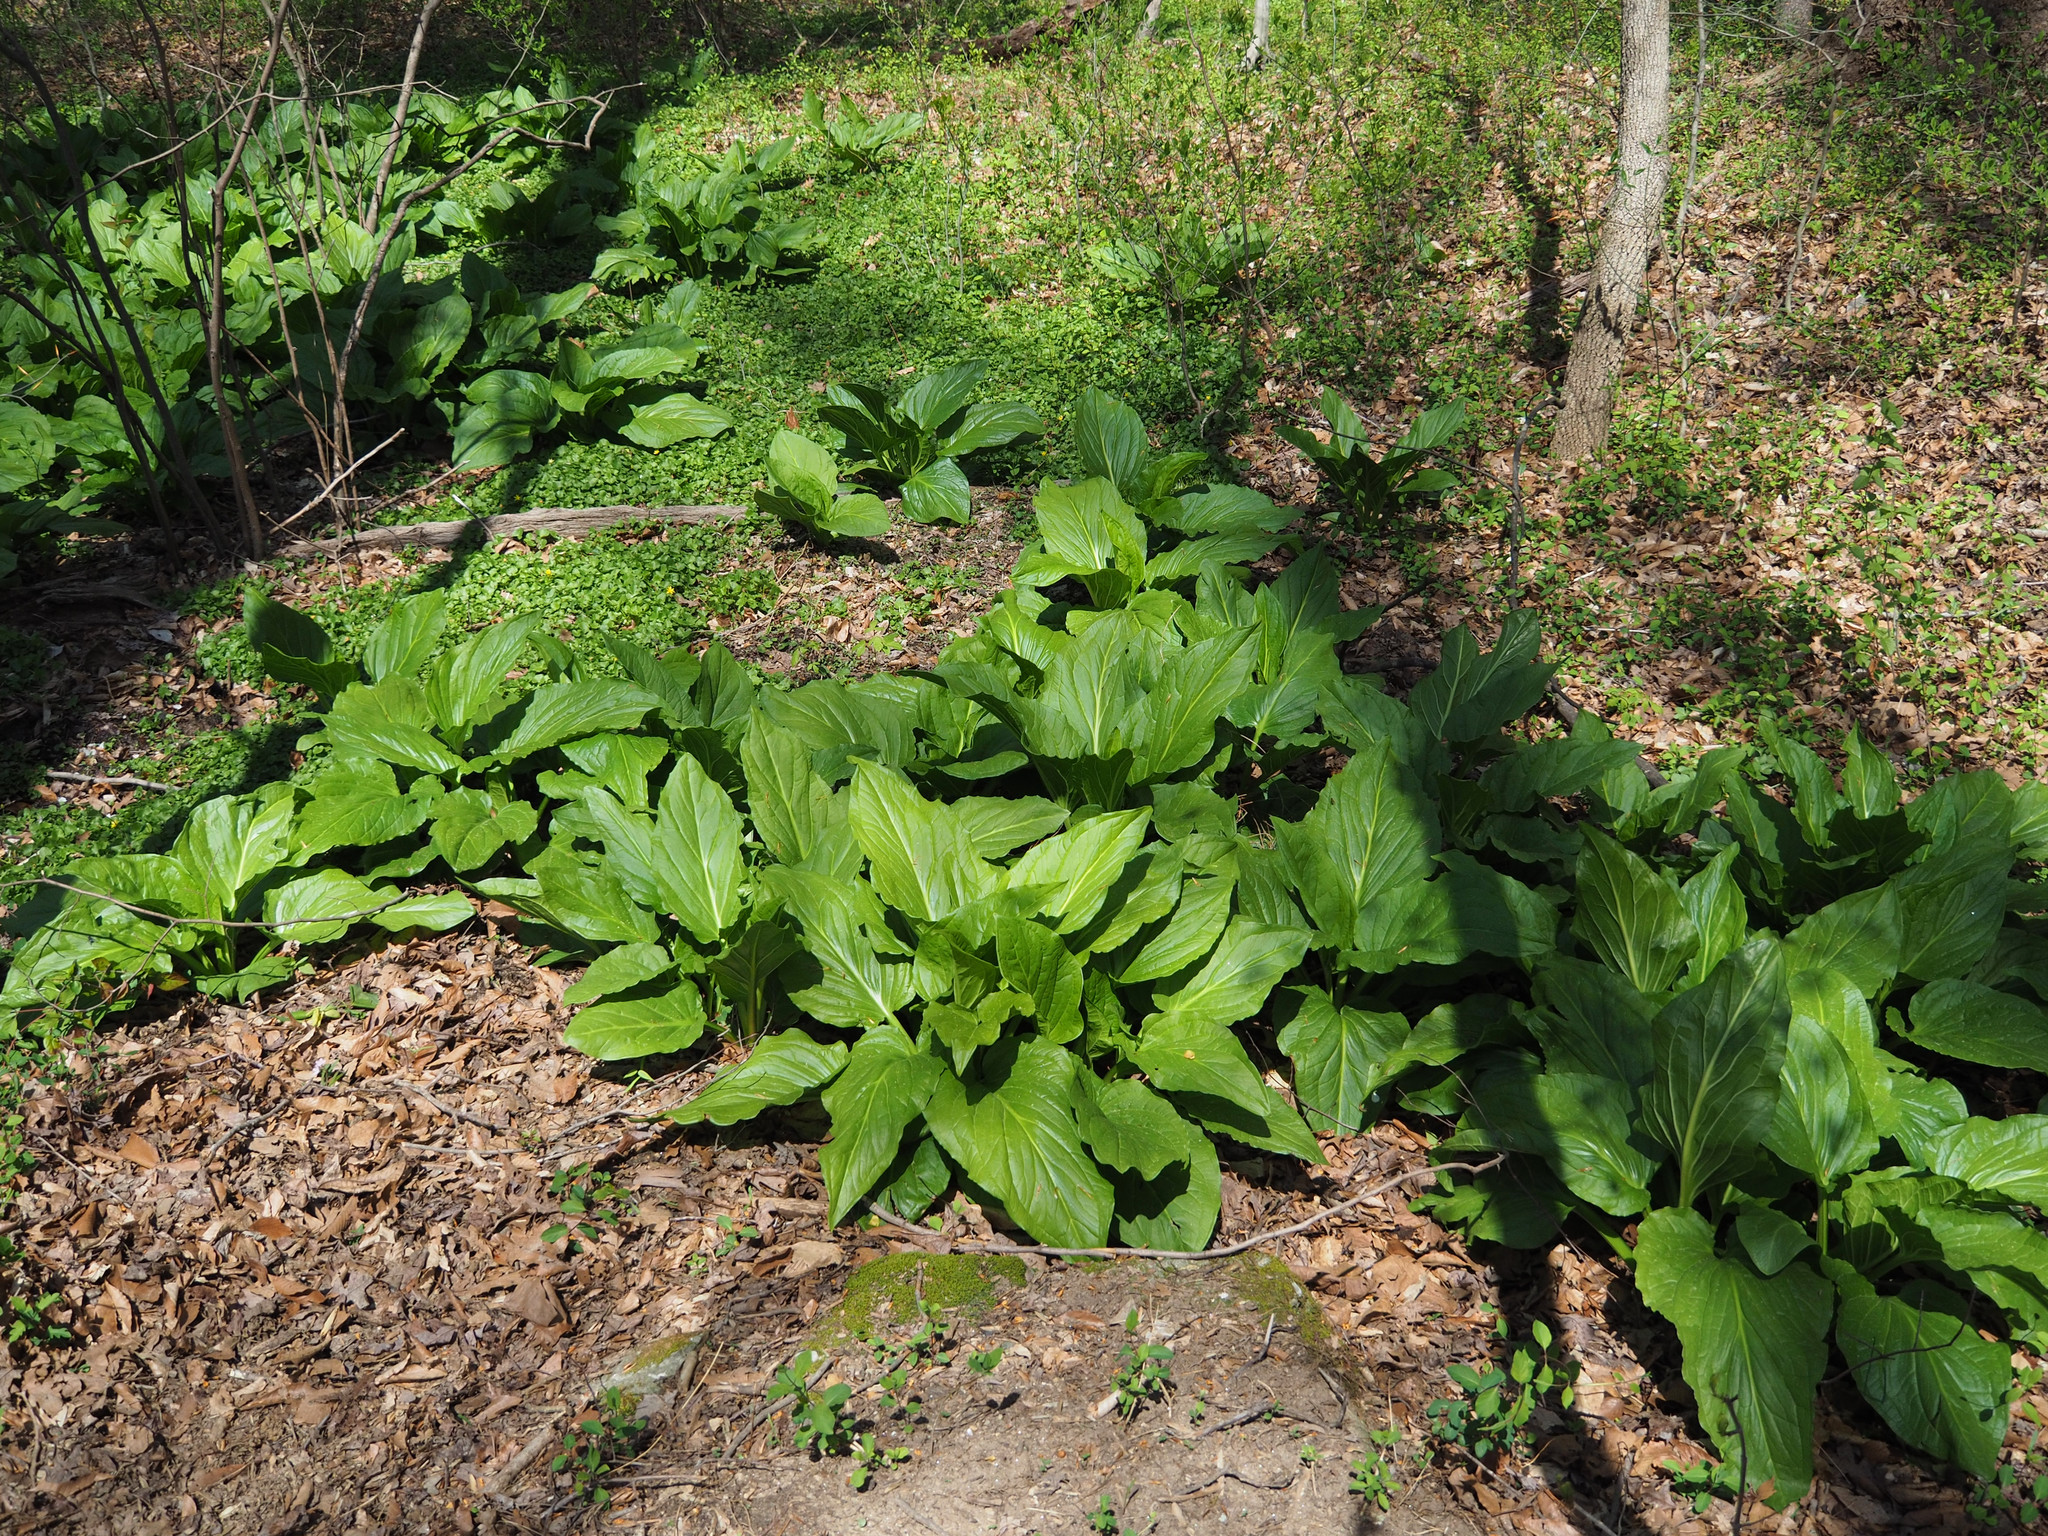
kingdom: Plantae
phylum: Tracheophyta
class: Liliopsida
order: Alismatales
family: Araceae
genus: Symplocarpus
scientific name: Symplocarpus foetidus
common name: Eastern skunk cabbage
